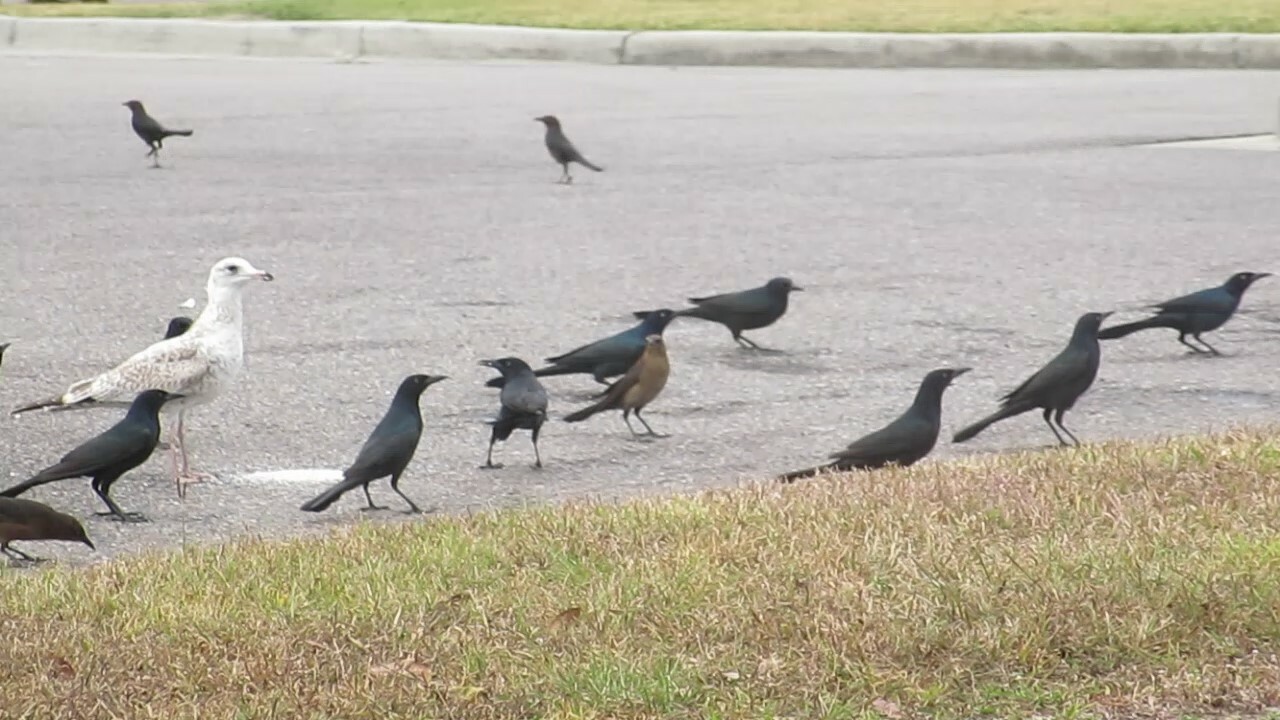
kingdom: Animalia
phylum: Chordata
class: Aves
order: Passeriformes
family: Icteridae
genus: Quiscalus
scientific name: Quiscalus major
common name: Boat-tailed grackle
